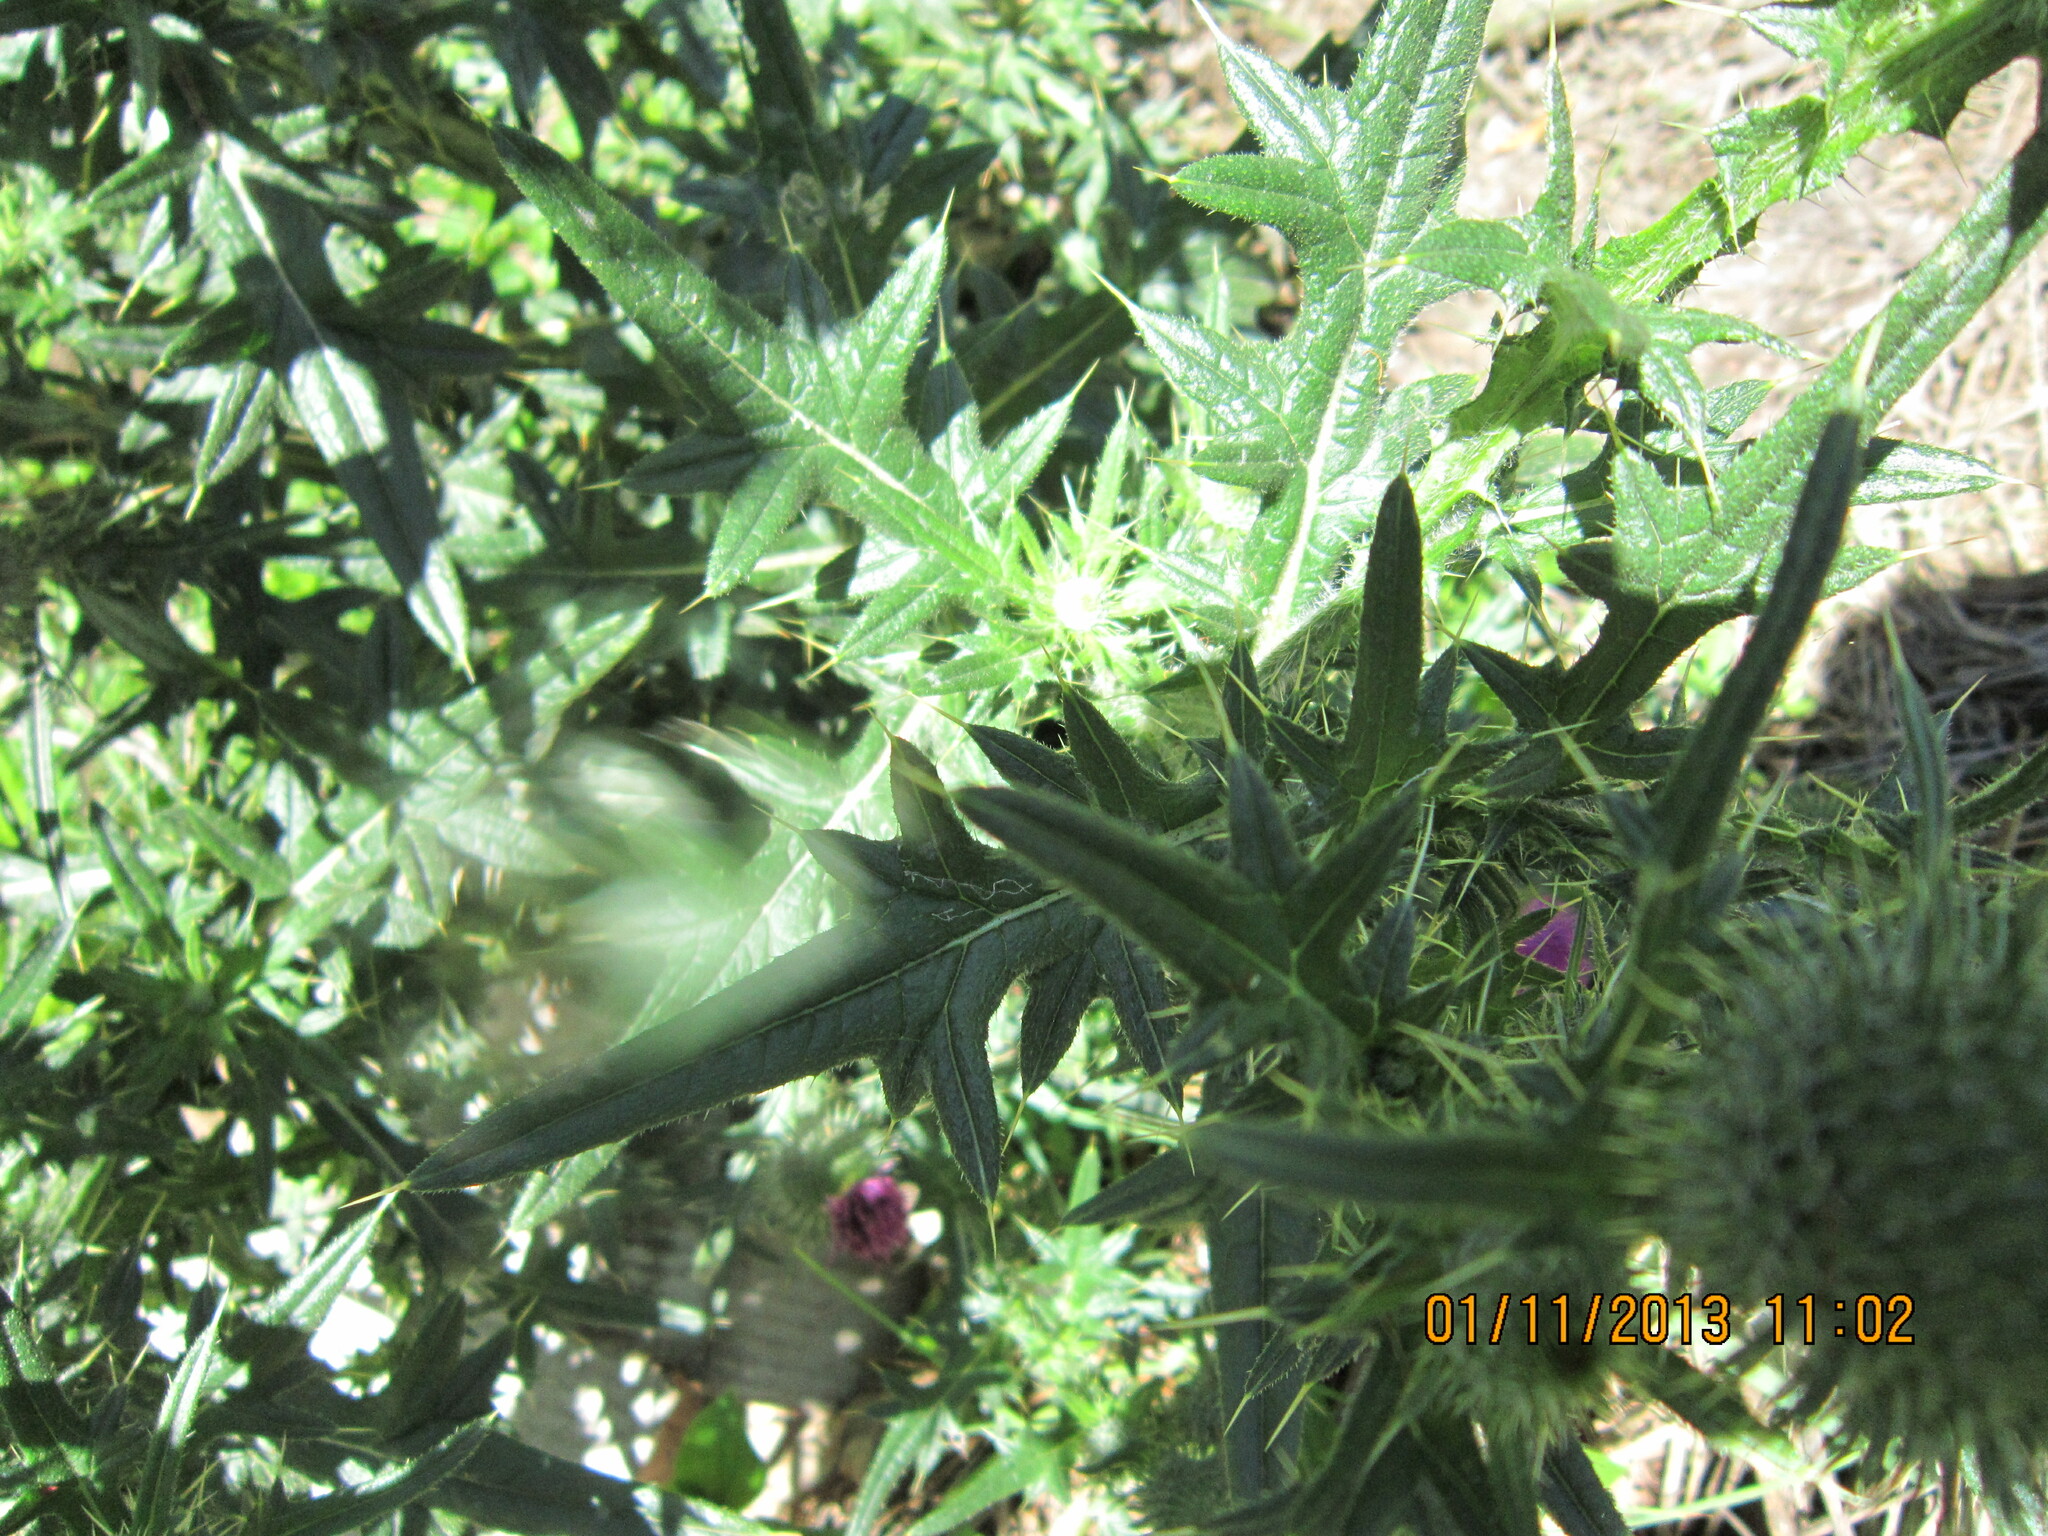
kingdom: Plantae
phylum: Tracheophyta
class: Magnoliopsida
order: Asterales
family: Asteraceae
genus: Cirsium
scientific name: Cirsium vulgare
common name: Bull thistle
